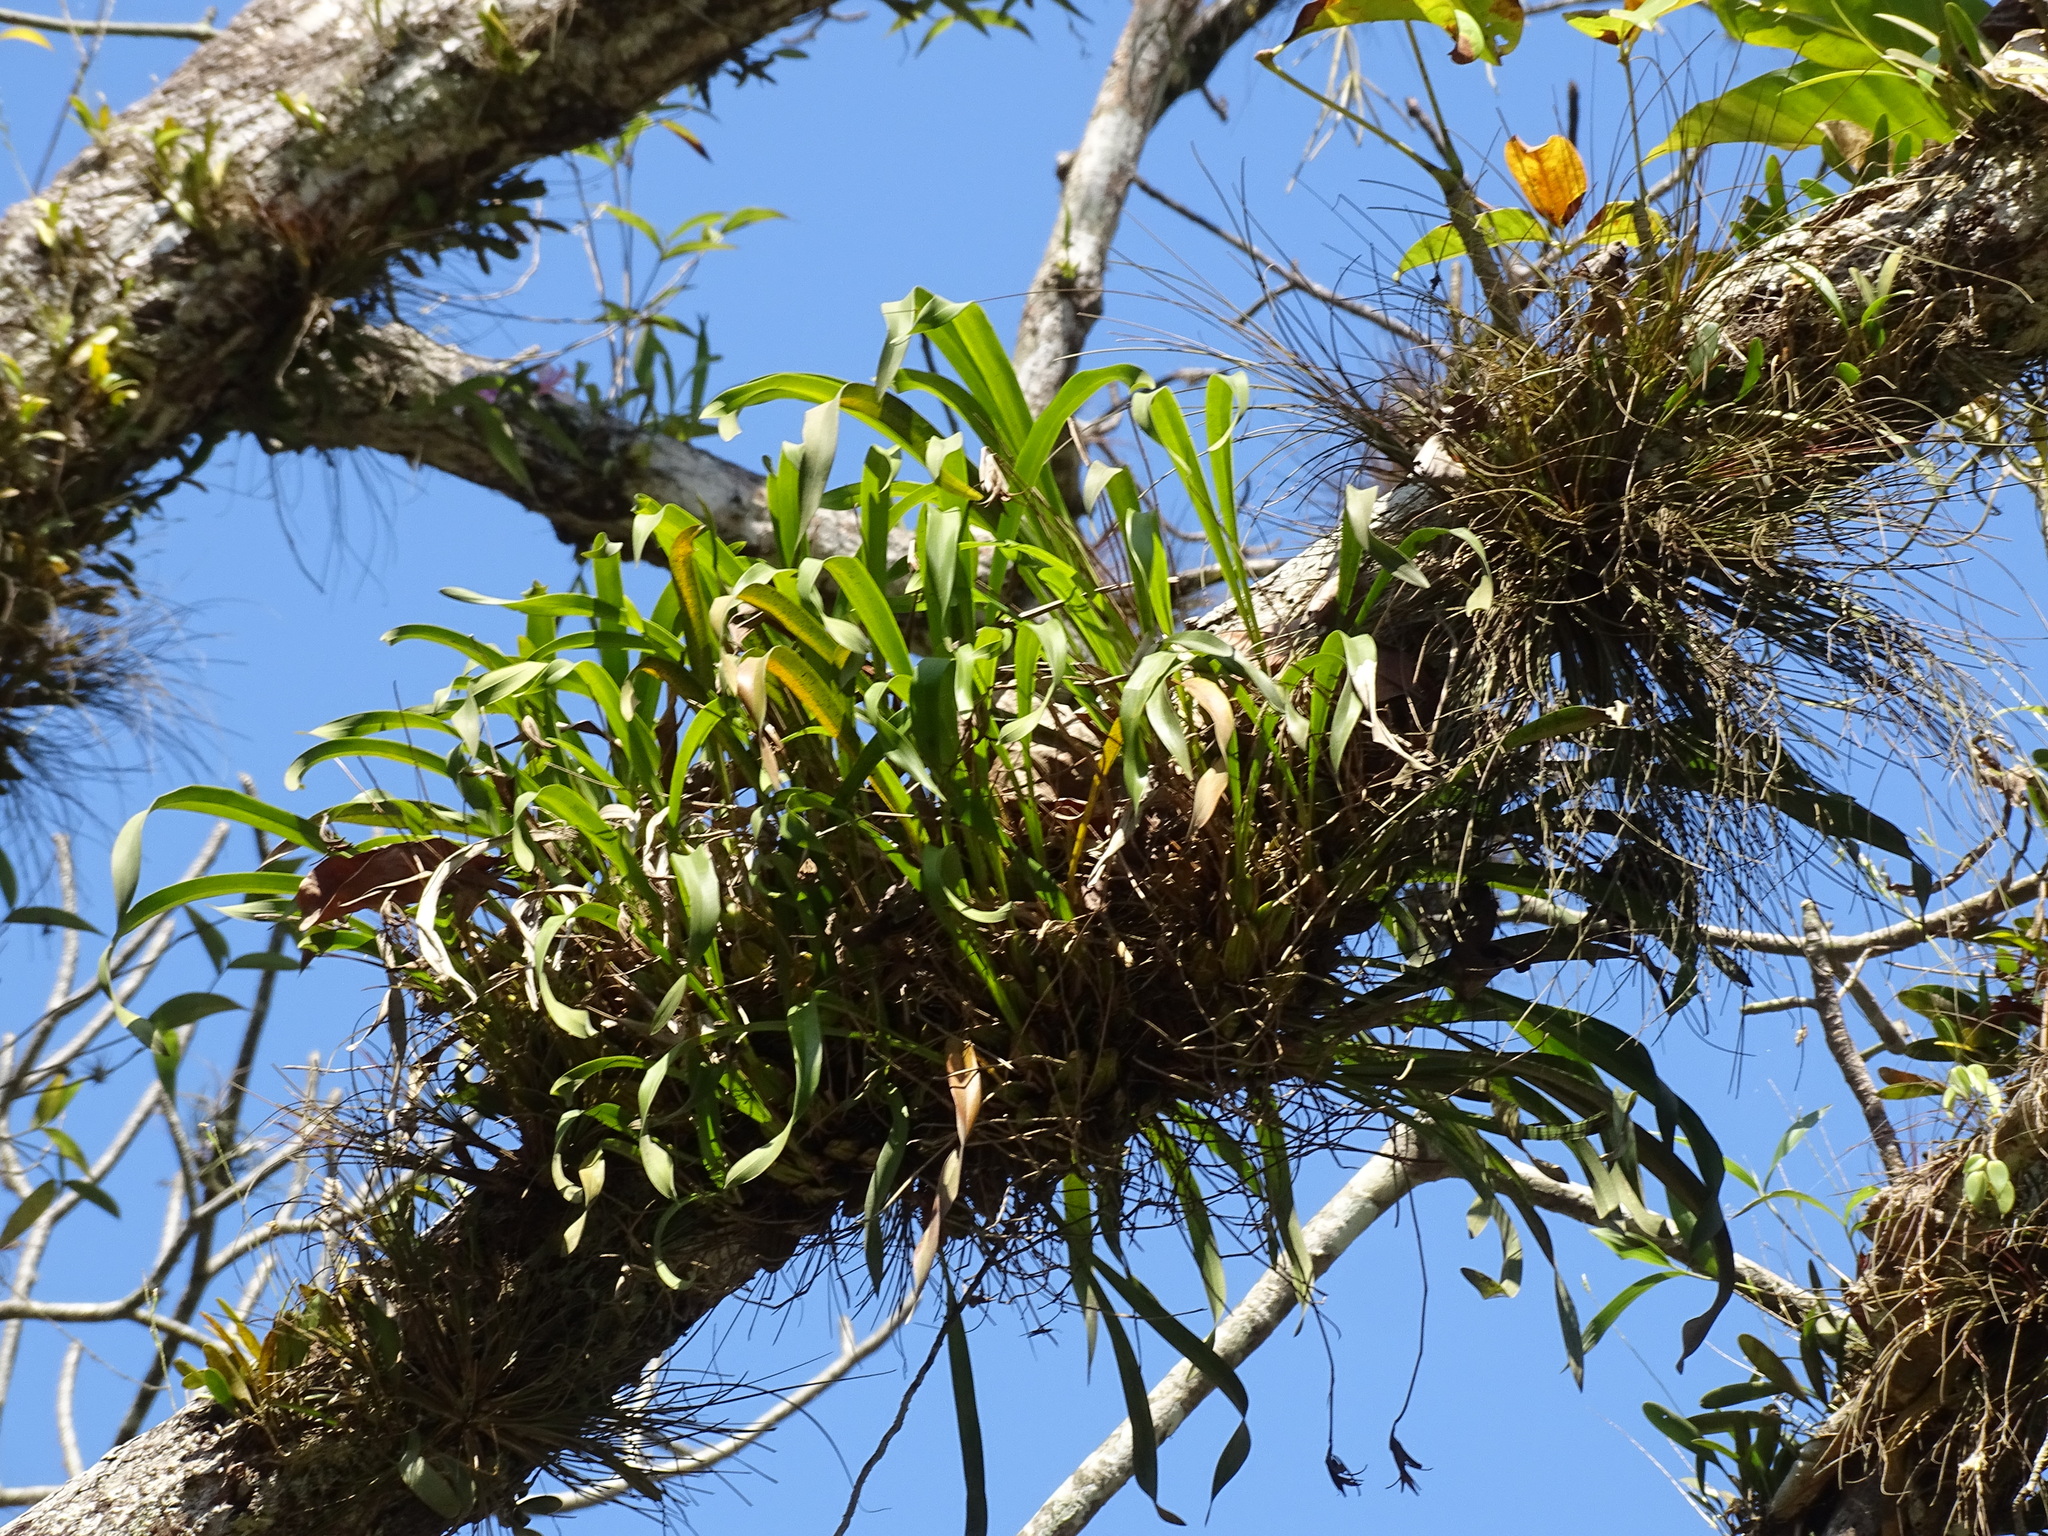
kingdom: Plantae
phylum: Tracheophyta
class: Liliopsida
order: Asparagales
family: Orchidaceae
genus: Maxillaria
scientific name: Maxillaria egertoniana
